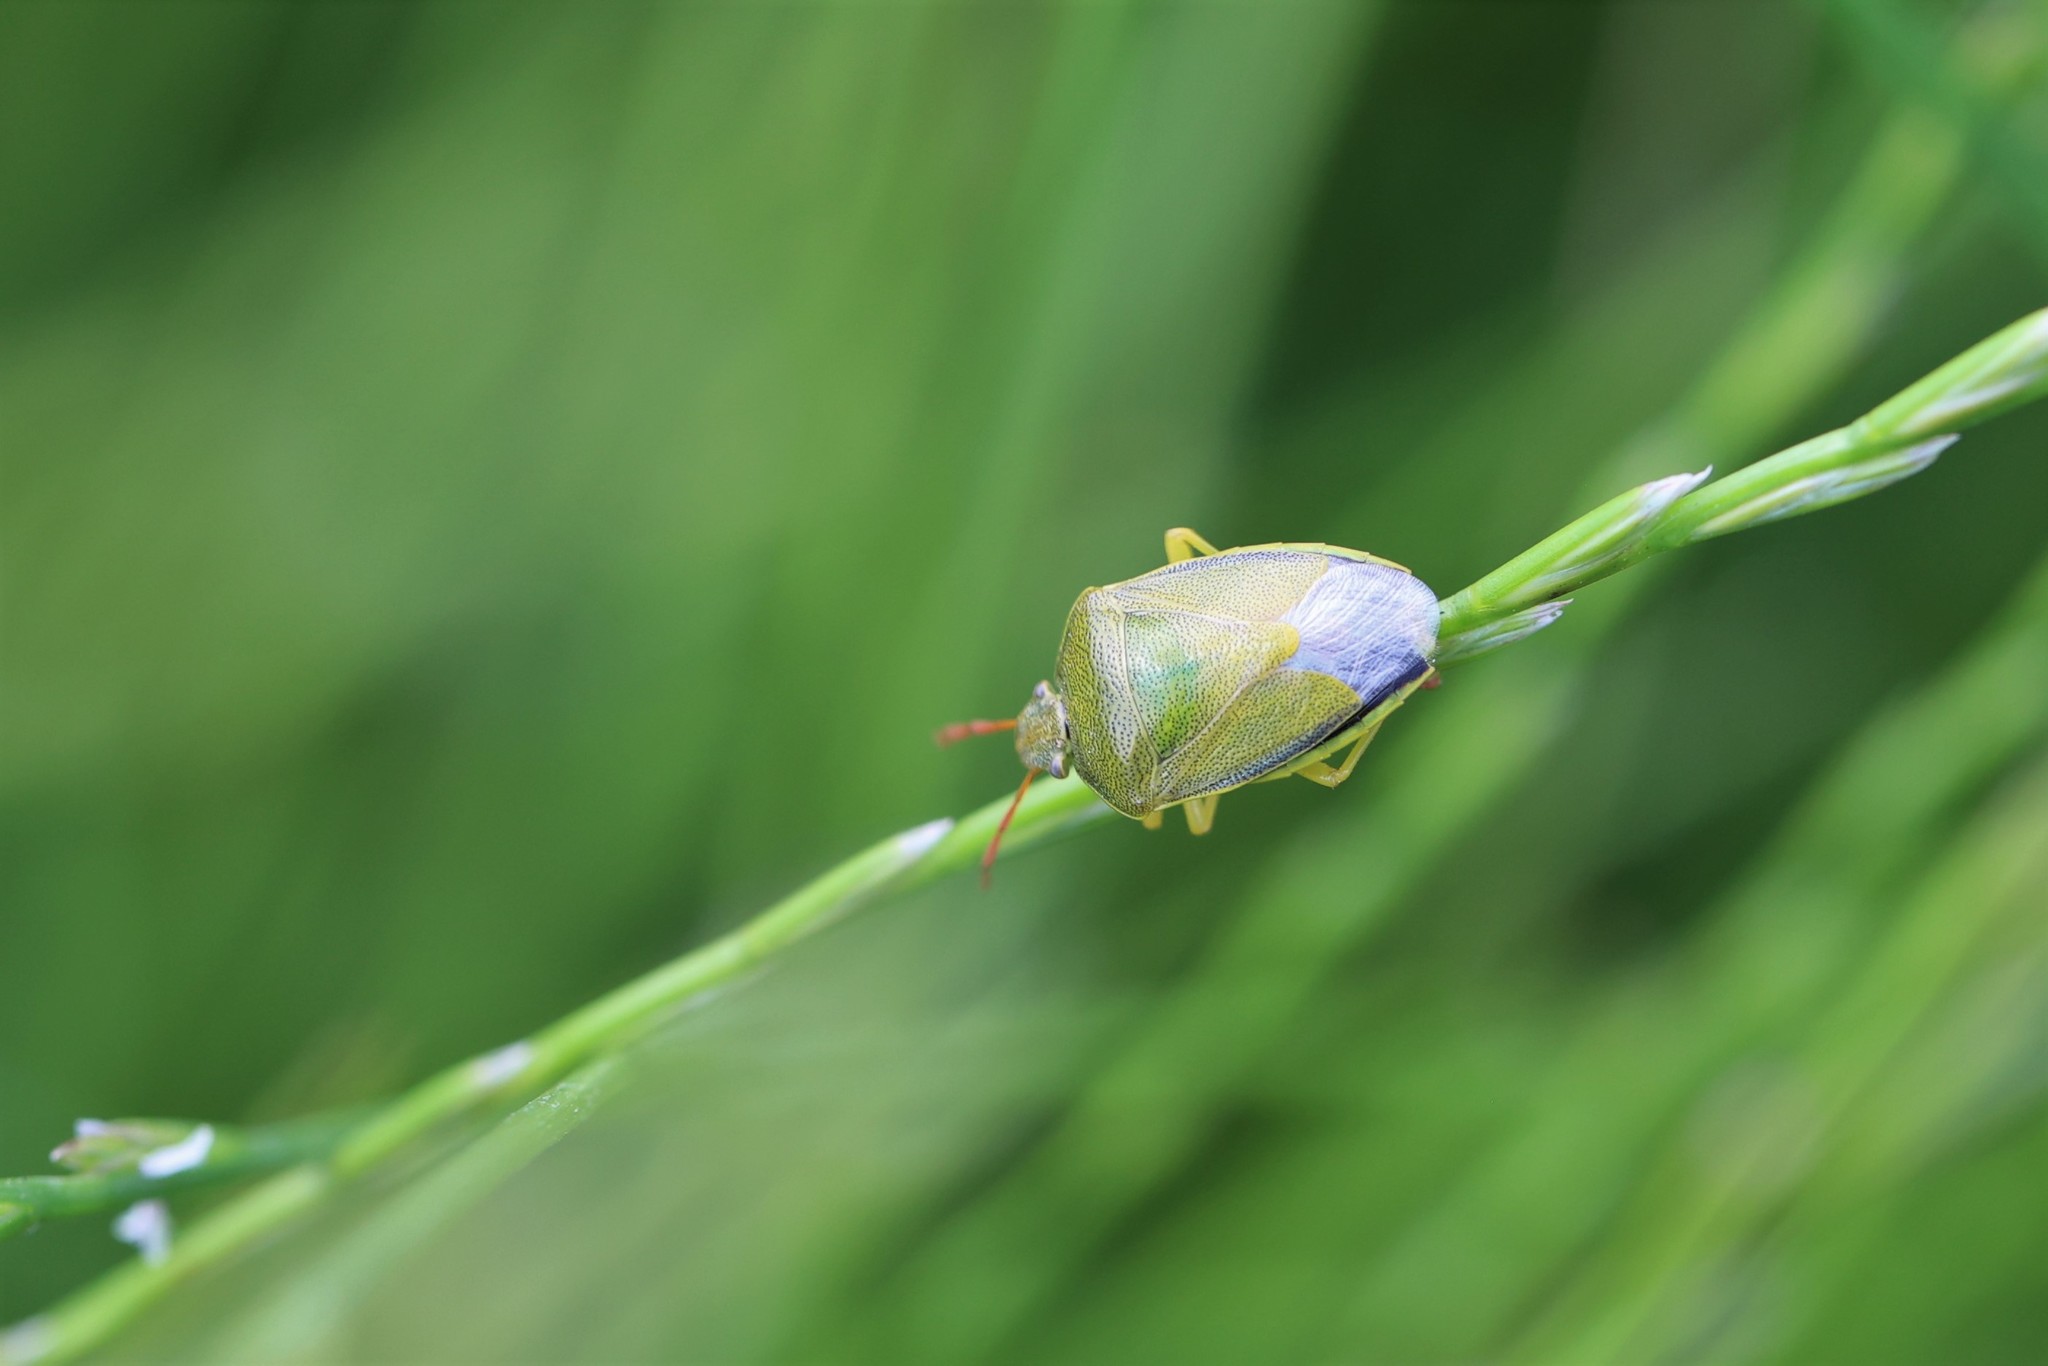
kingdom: Animalia
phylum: Arthropoda
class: Insecta
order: Hemiptera
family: Pentatomidae
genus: Piezodorus
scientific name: Piezodorus lituratus
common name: Stink bug
